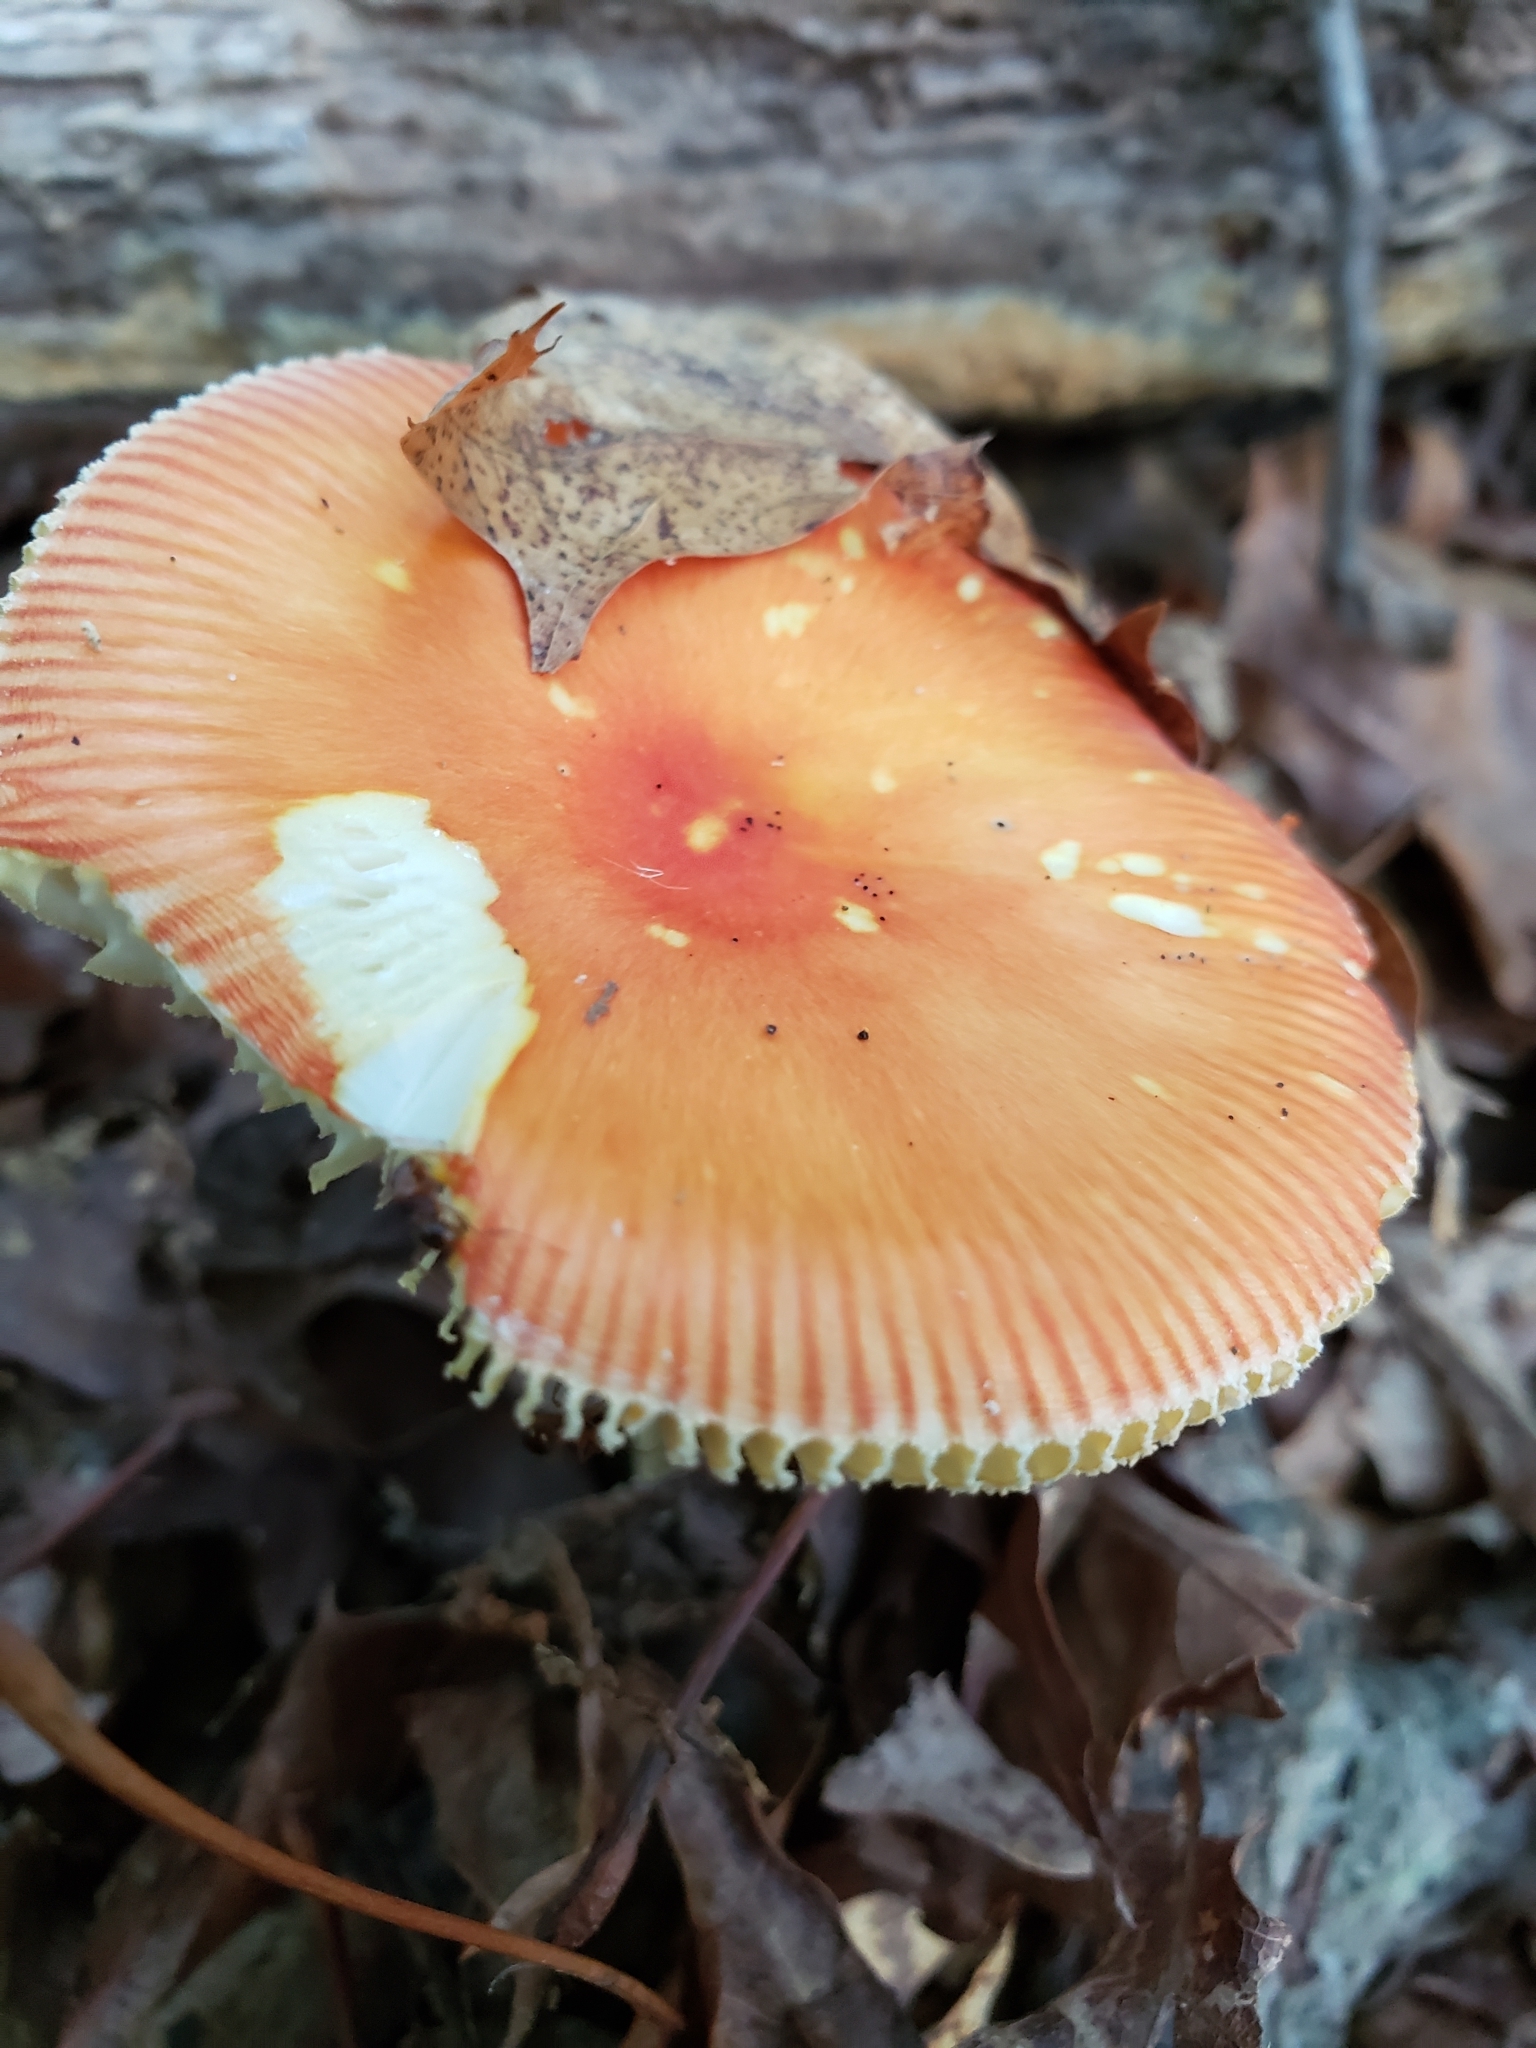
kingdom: Fungi
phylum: Basidiomycota
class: Agaricomycetes
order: Agaricales
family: Amanitaceae
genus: Amanita
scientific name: Amanita parcivolvata
